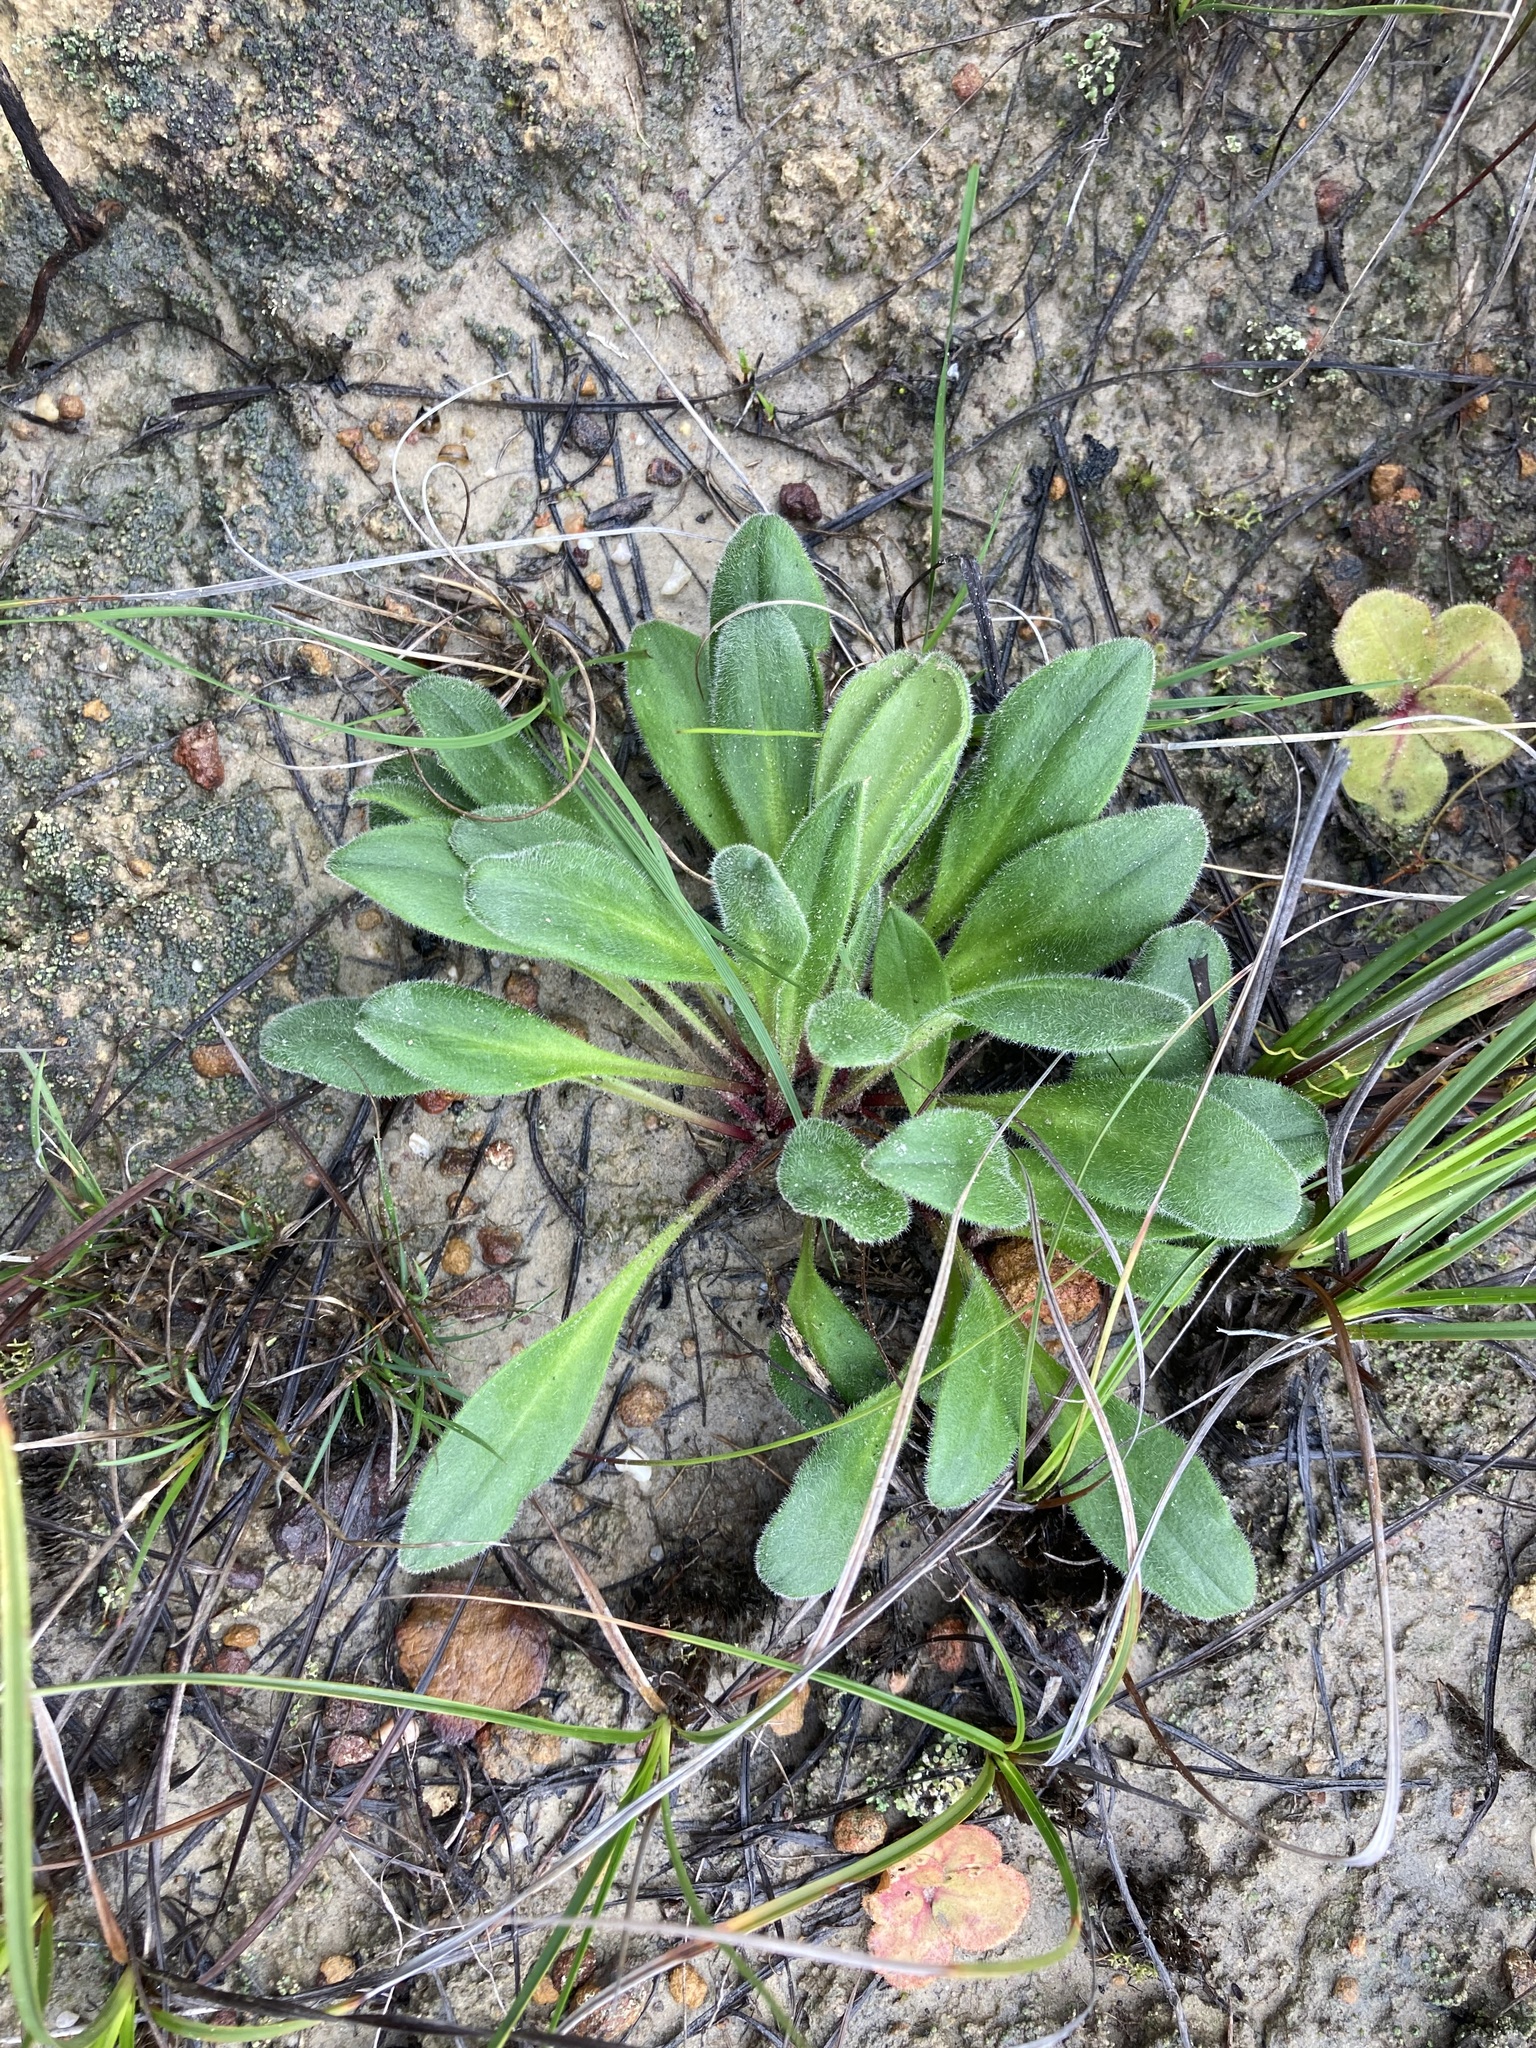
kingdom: Plantae
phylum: Tracheophyta
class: Magnoliopsida
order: Asterales
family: Stylidiaceae
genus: Stylidium
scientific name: Stylidium pycnostachyum
